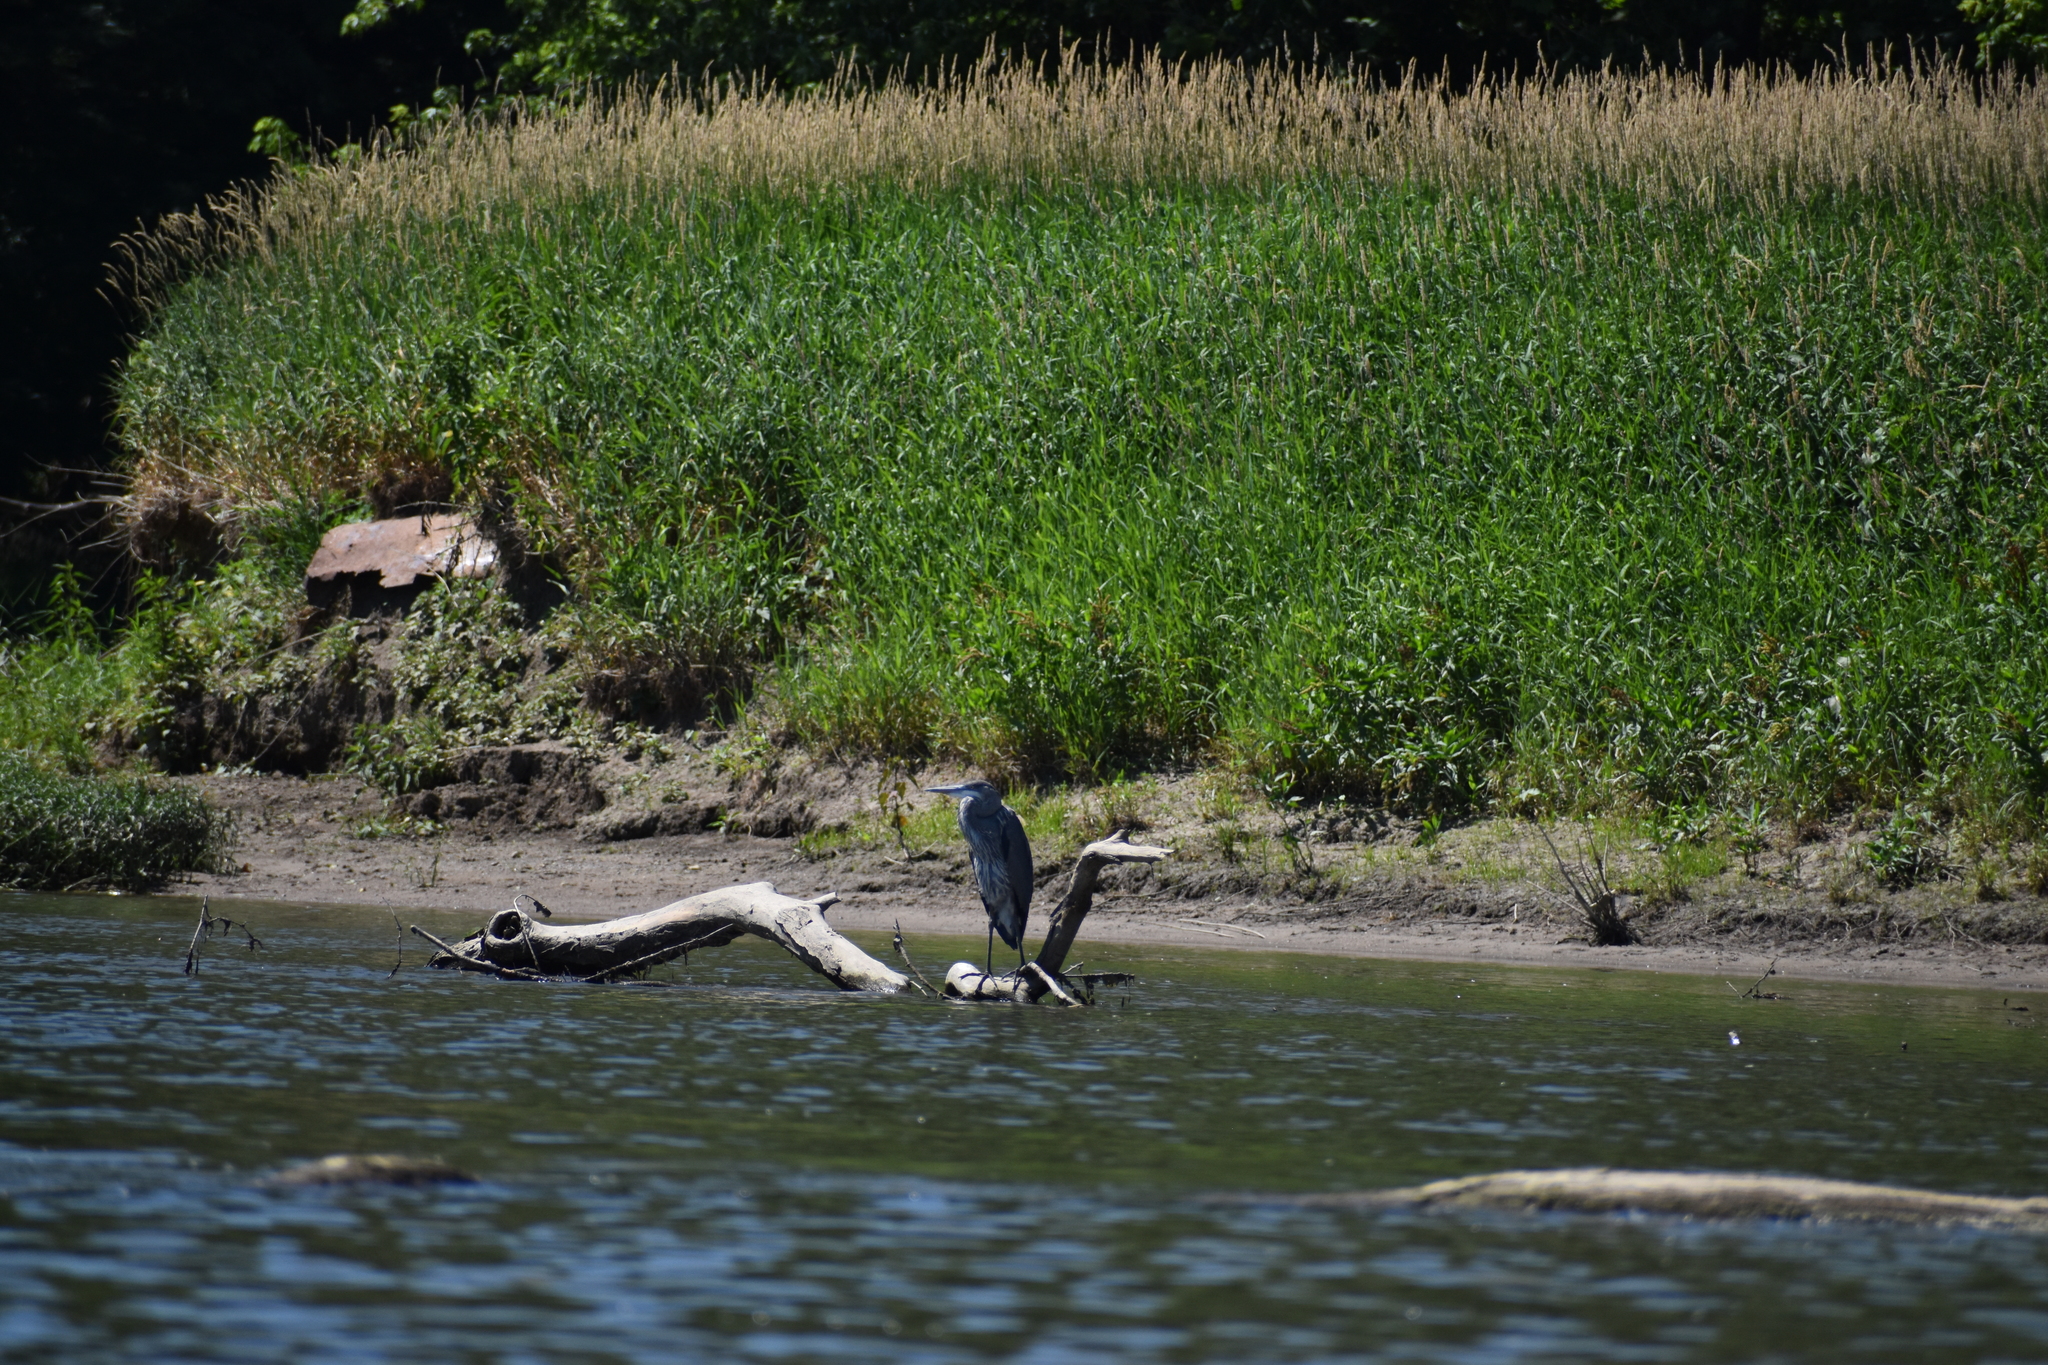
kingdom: Animalia
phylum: Chordata
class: Aves
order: Pelecaniformes
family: Ardeidae
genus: Ardea
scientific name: Ardea herodias
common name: Great blue heron
